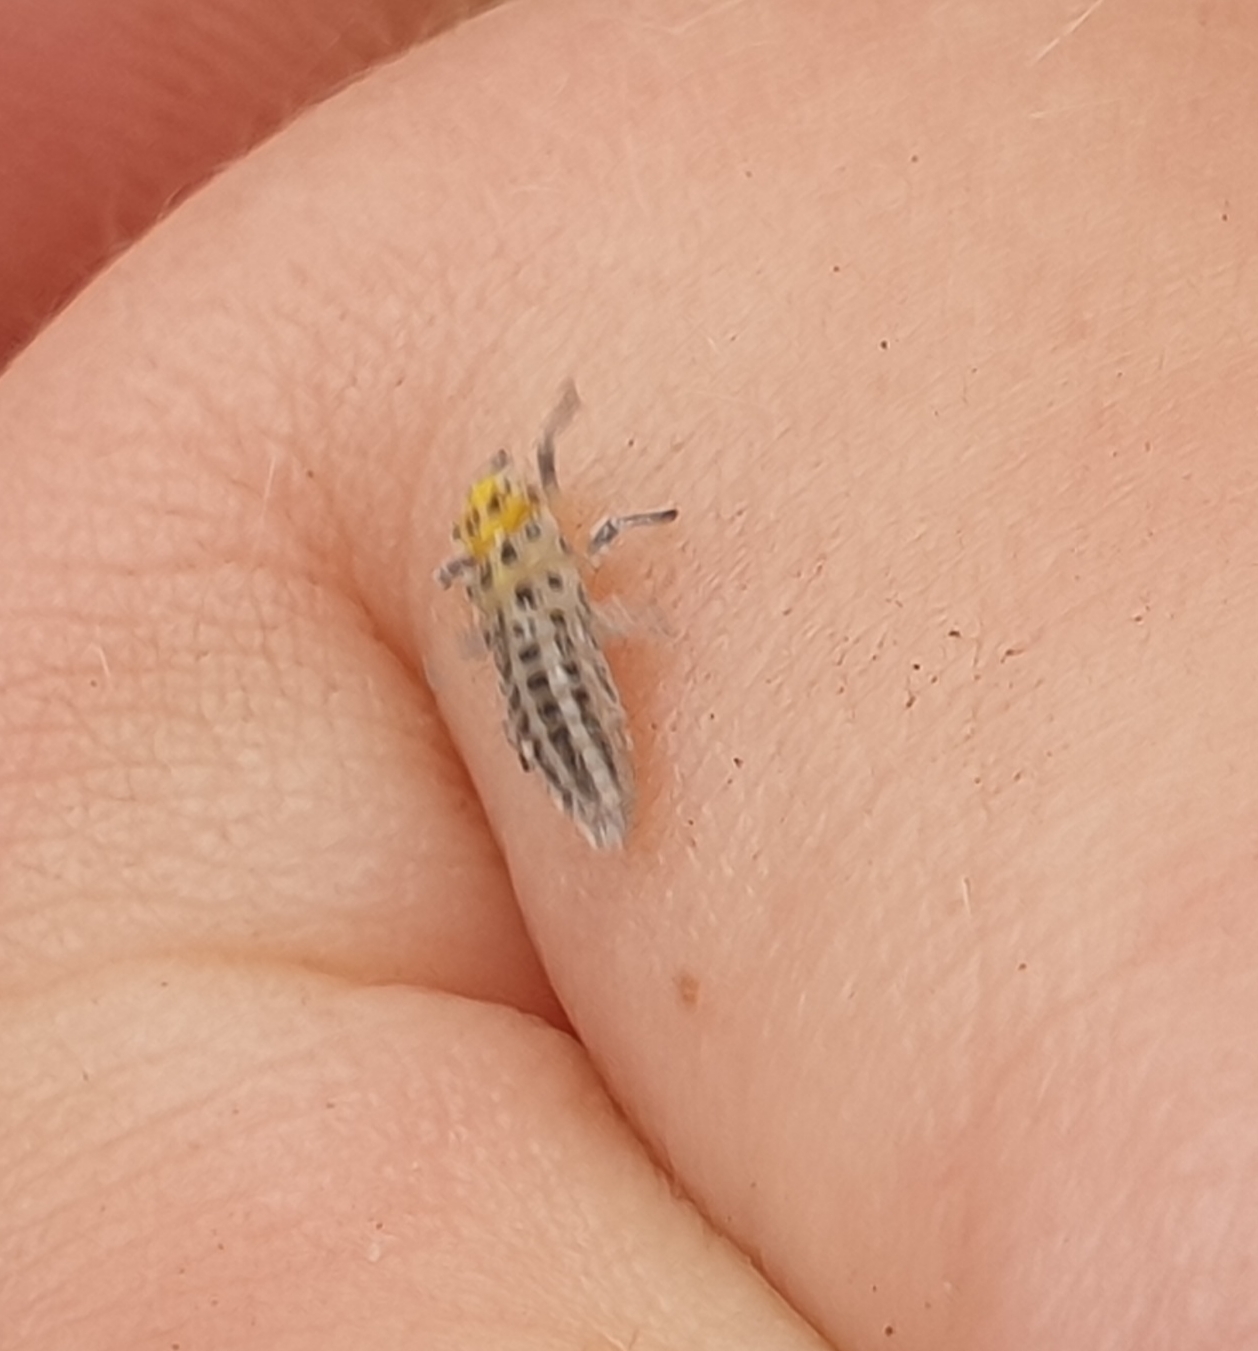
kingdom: Animalia
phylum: Arthropoda
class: Insecta
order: Coleoptera
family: Coccinellidae
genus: Illeis
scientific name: Illeis galbula
